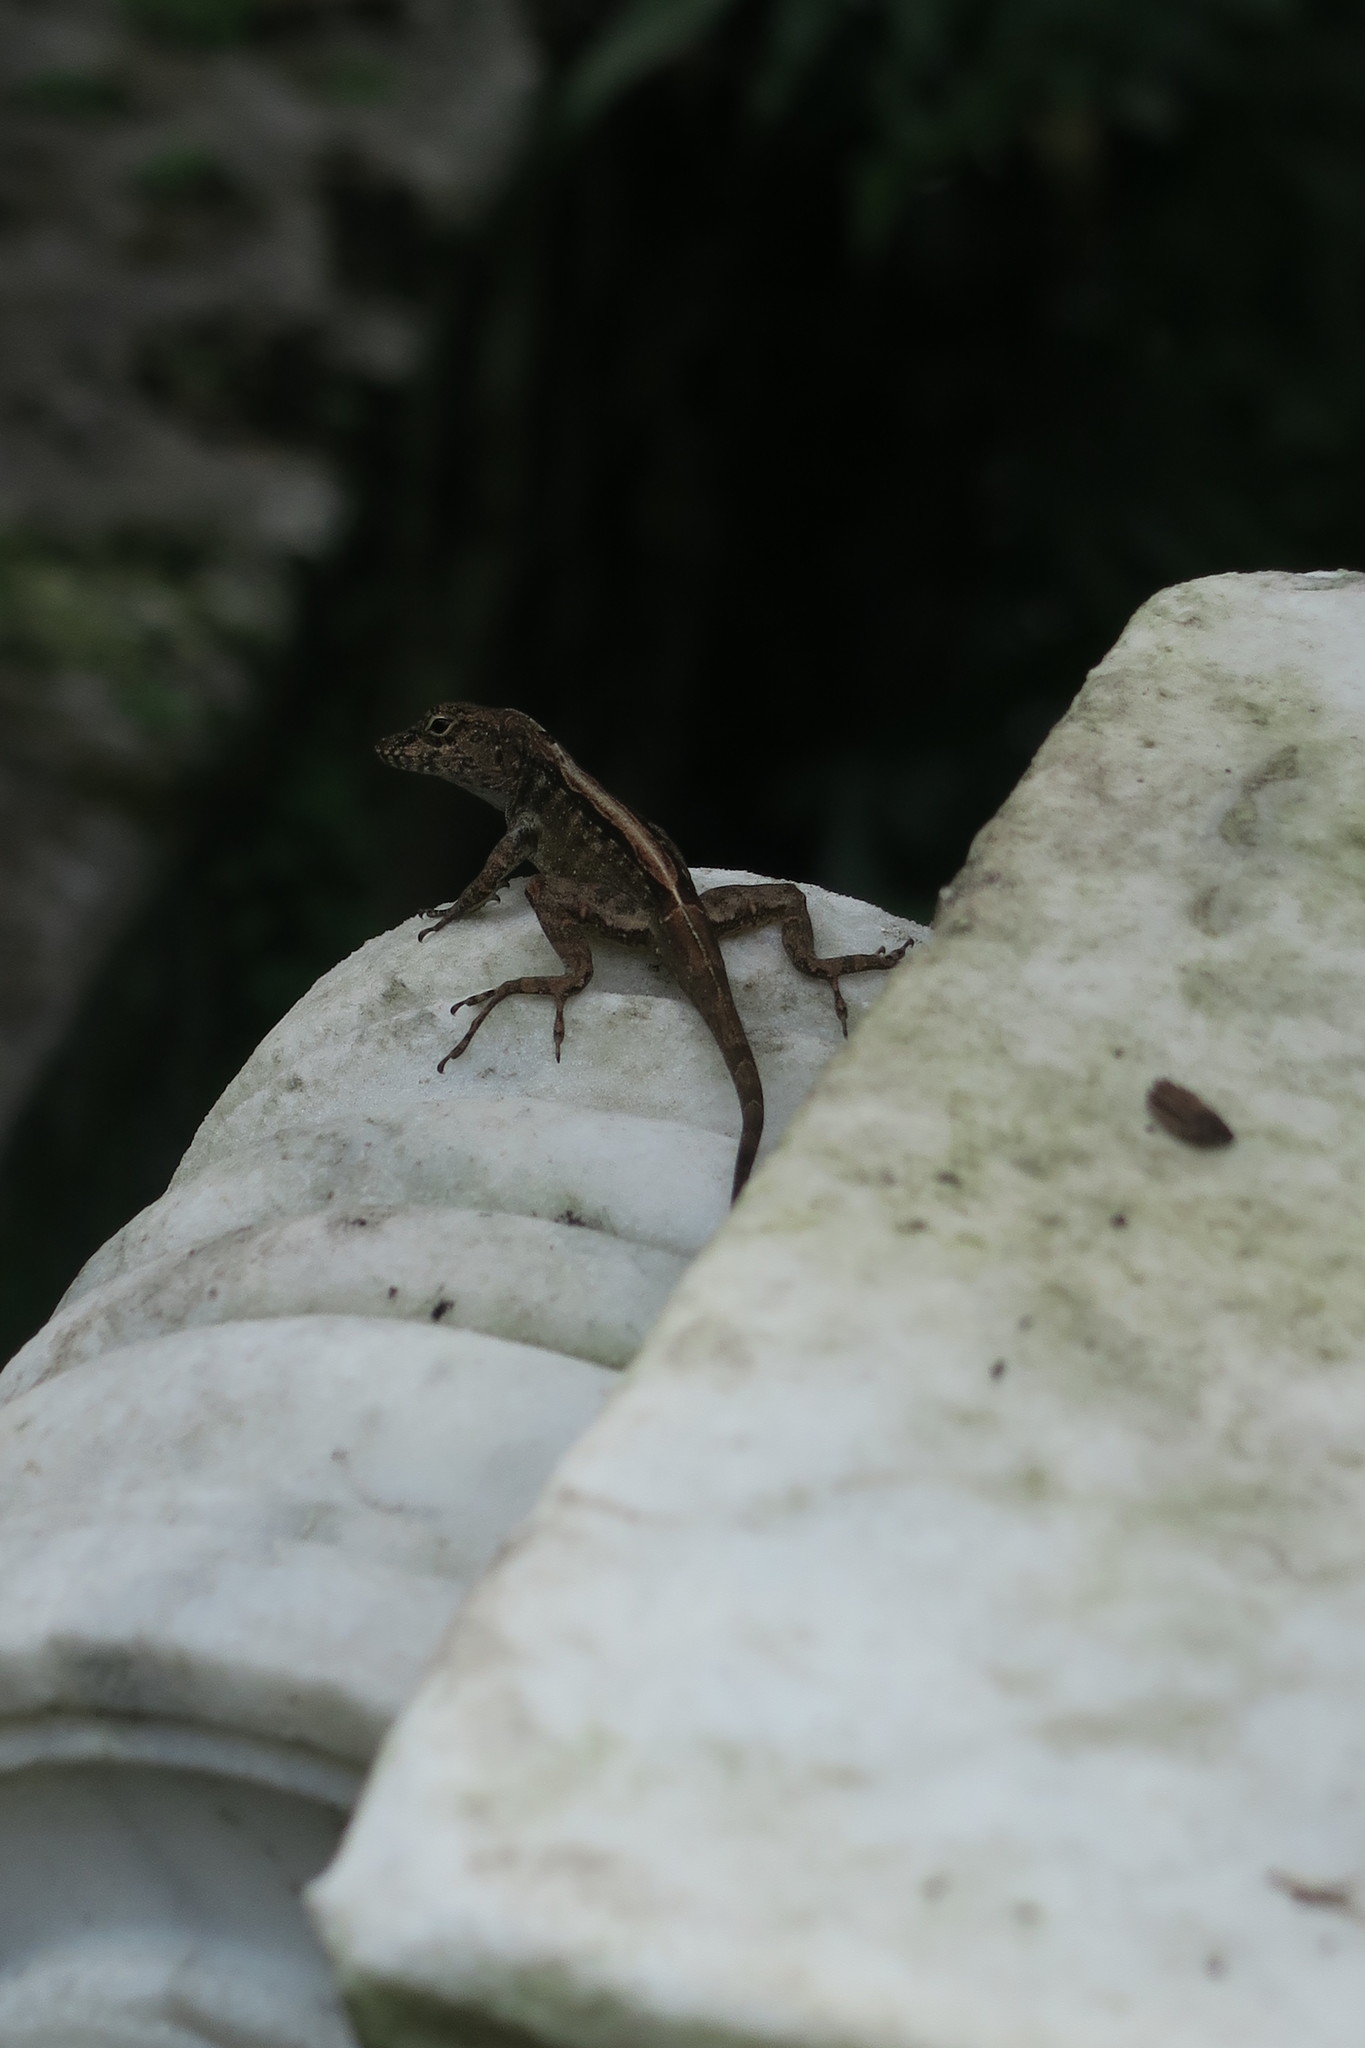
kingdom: Animalia
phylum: Chordata
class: Squamata
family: Dactyloidae
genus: Anolis
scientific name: Anolis sagrei
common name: Brown anole
